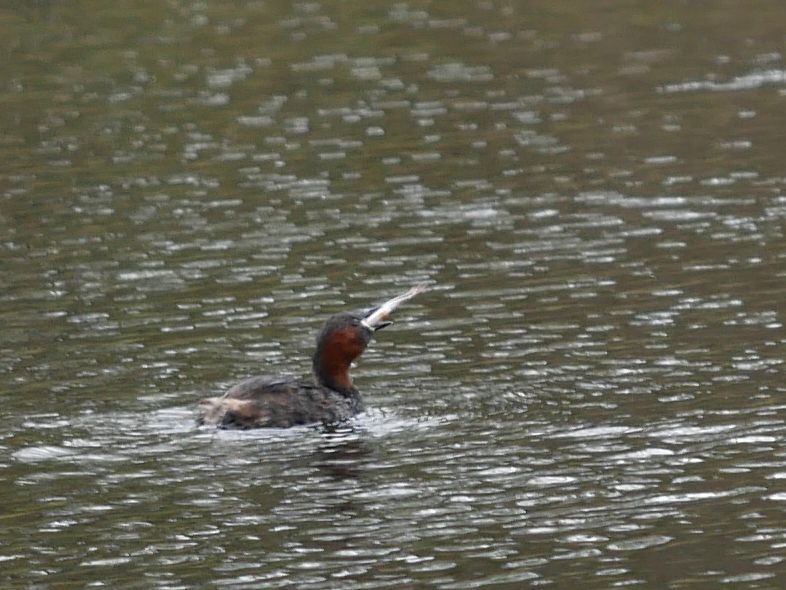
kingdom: Animalia
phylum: Chordata
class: Aves
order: Podicipediformes
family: Podicipedidae
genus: Tachybaptus
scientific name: Tachybaptus ruficollis
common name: Little grebe
